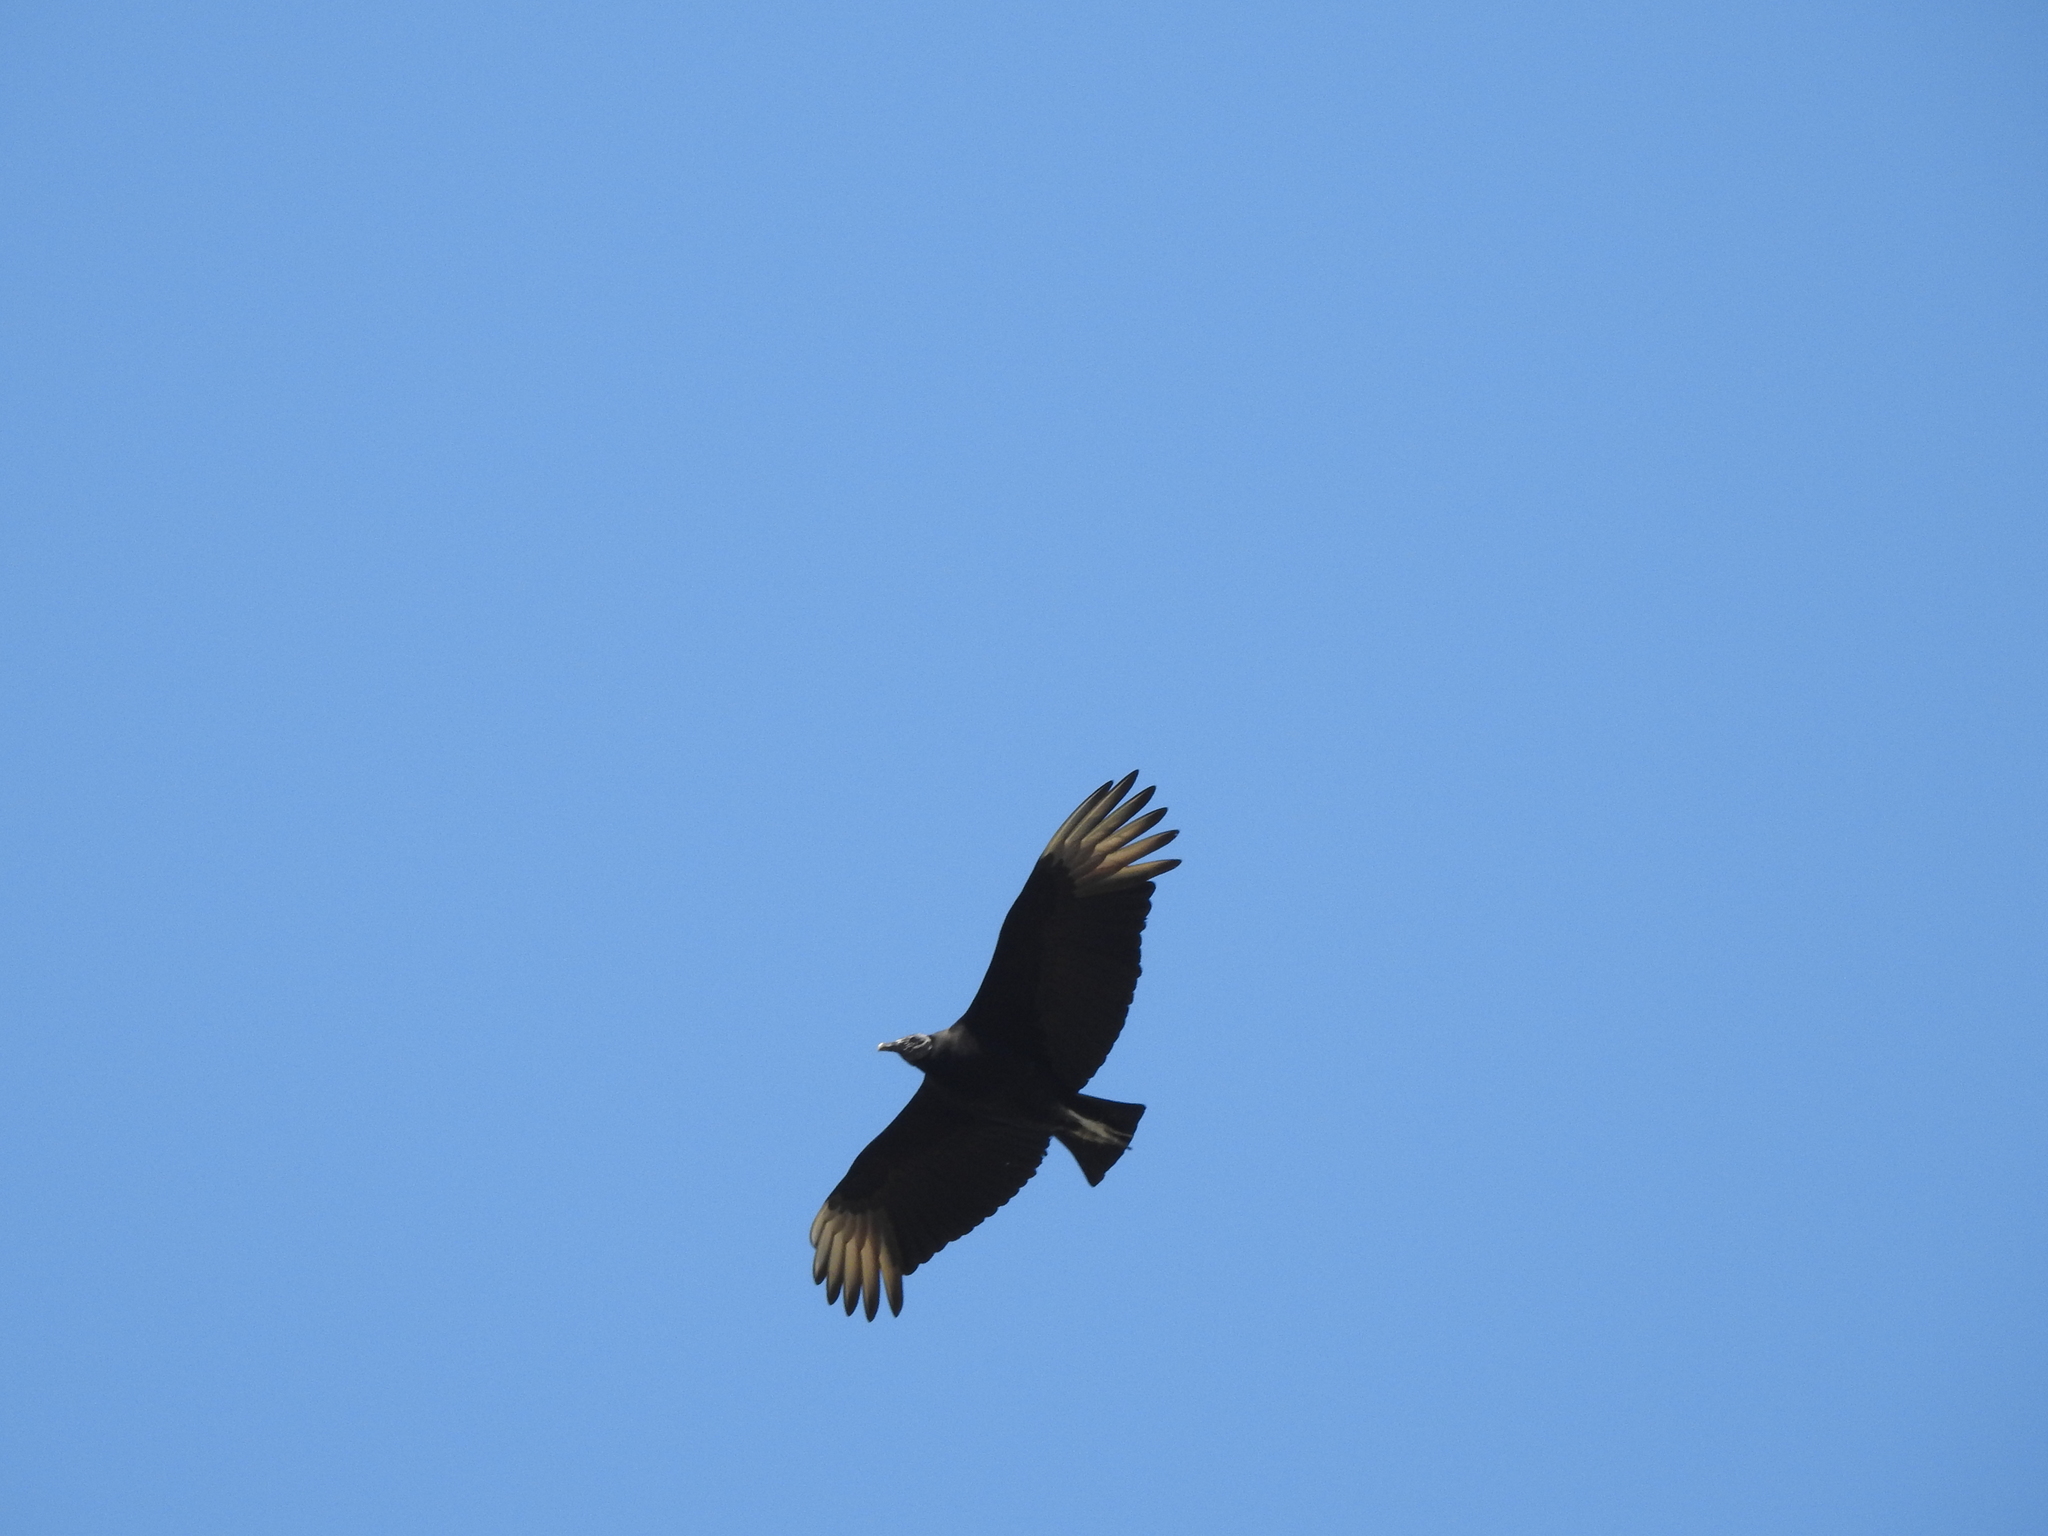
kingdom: Animalia
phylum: Chordata
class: Aves
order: Accipitriformes
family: Cathartidae
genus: Coragyps
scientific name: Coragyps atratus
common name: Black vulture
